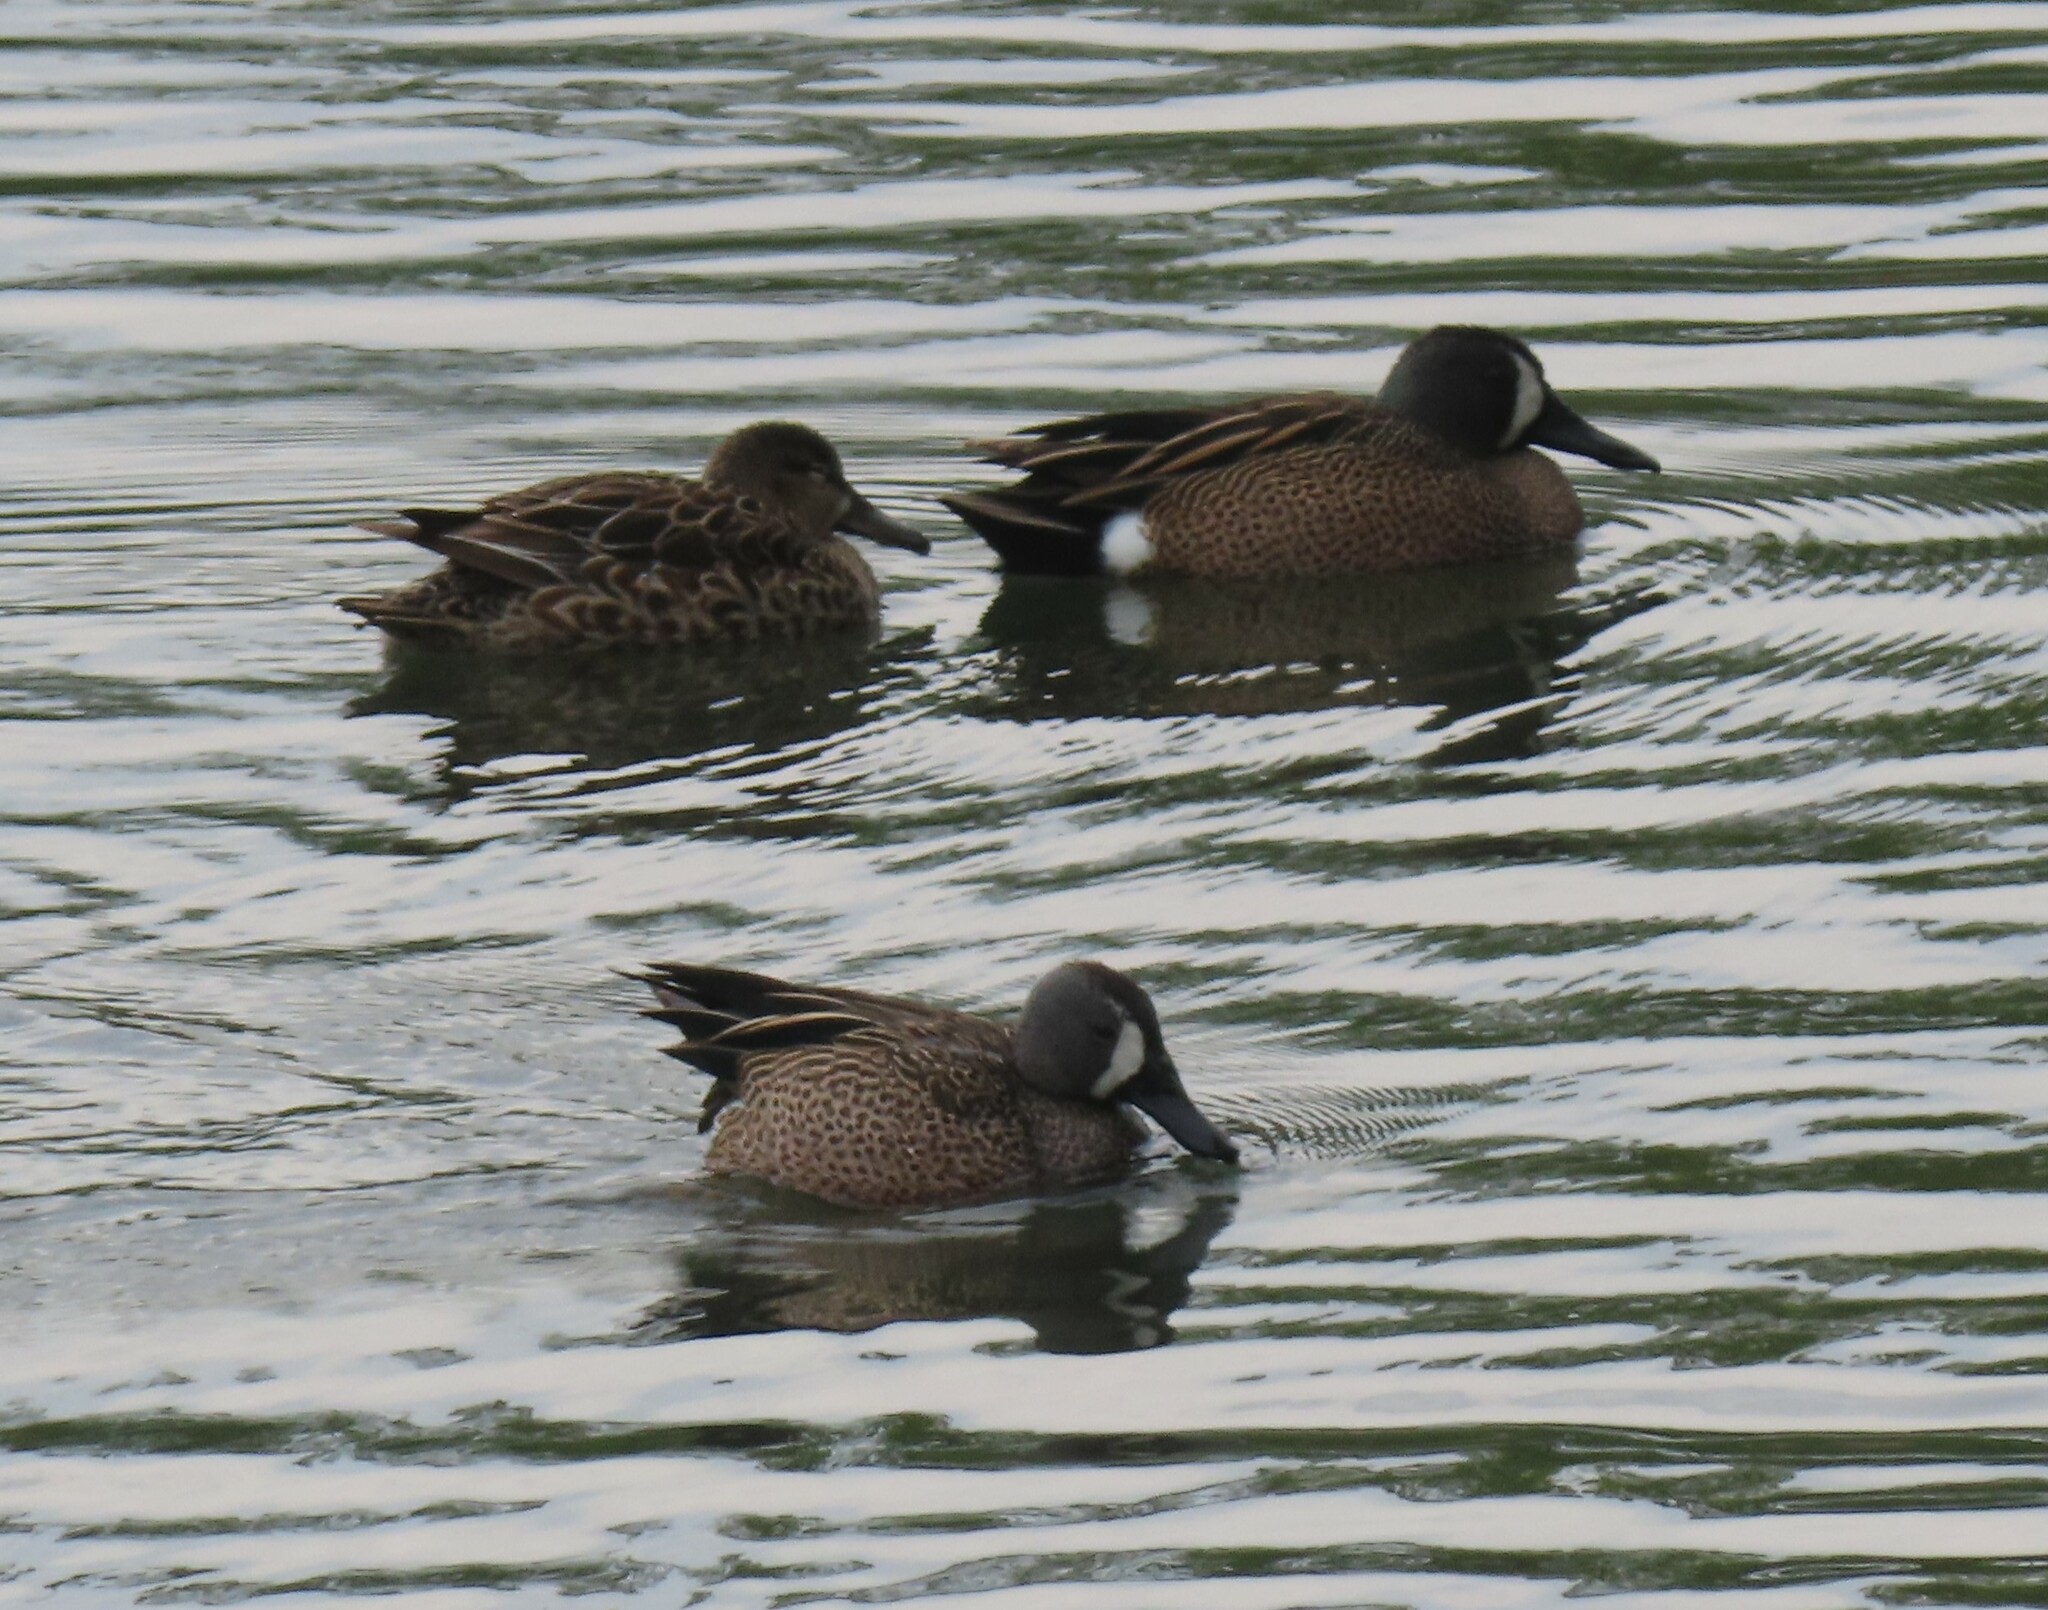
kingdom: Animalia
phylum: Chordata
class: Aves
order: Anseriformes
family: Anatidae
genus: Spatula
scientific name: Spatula discors
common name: Blue-winged teal
